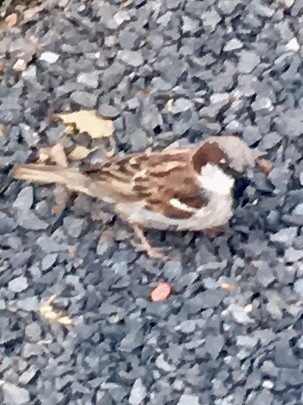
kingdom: Animalia
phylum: Chordata
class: Aves
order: Passeriformes
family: Passeridae
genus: Passer
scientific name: Passer domesticus
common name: House sparrow
